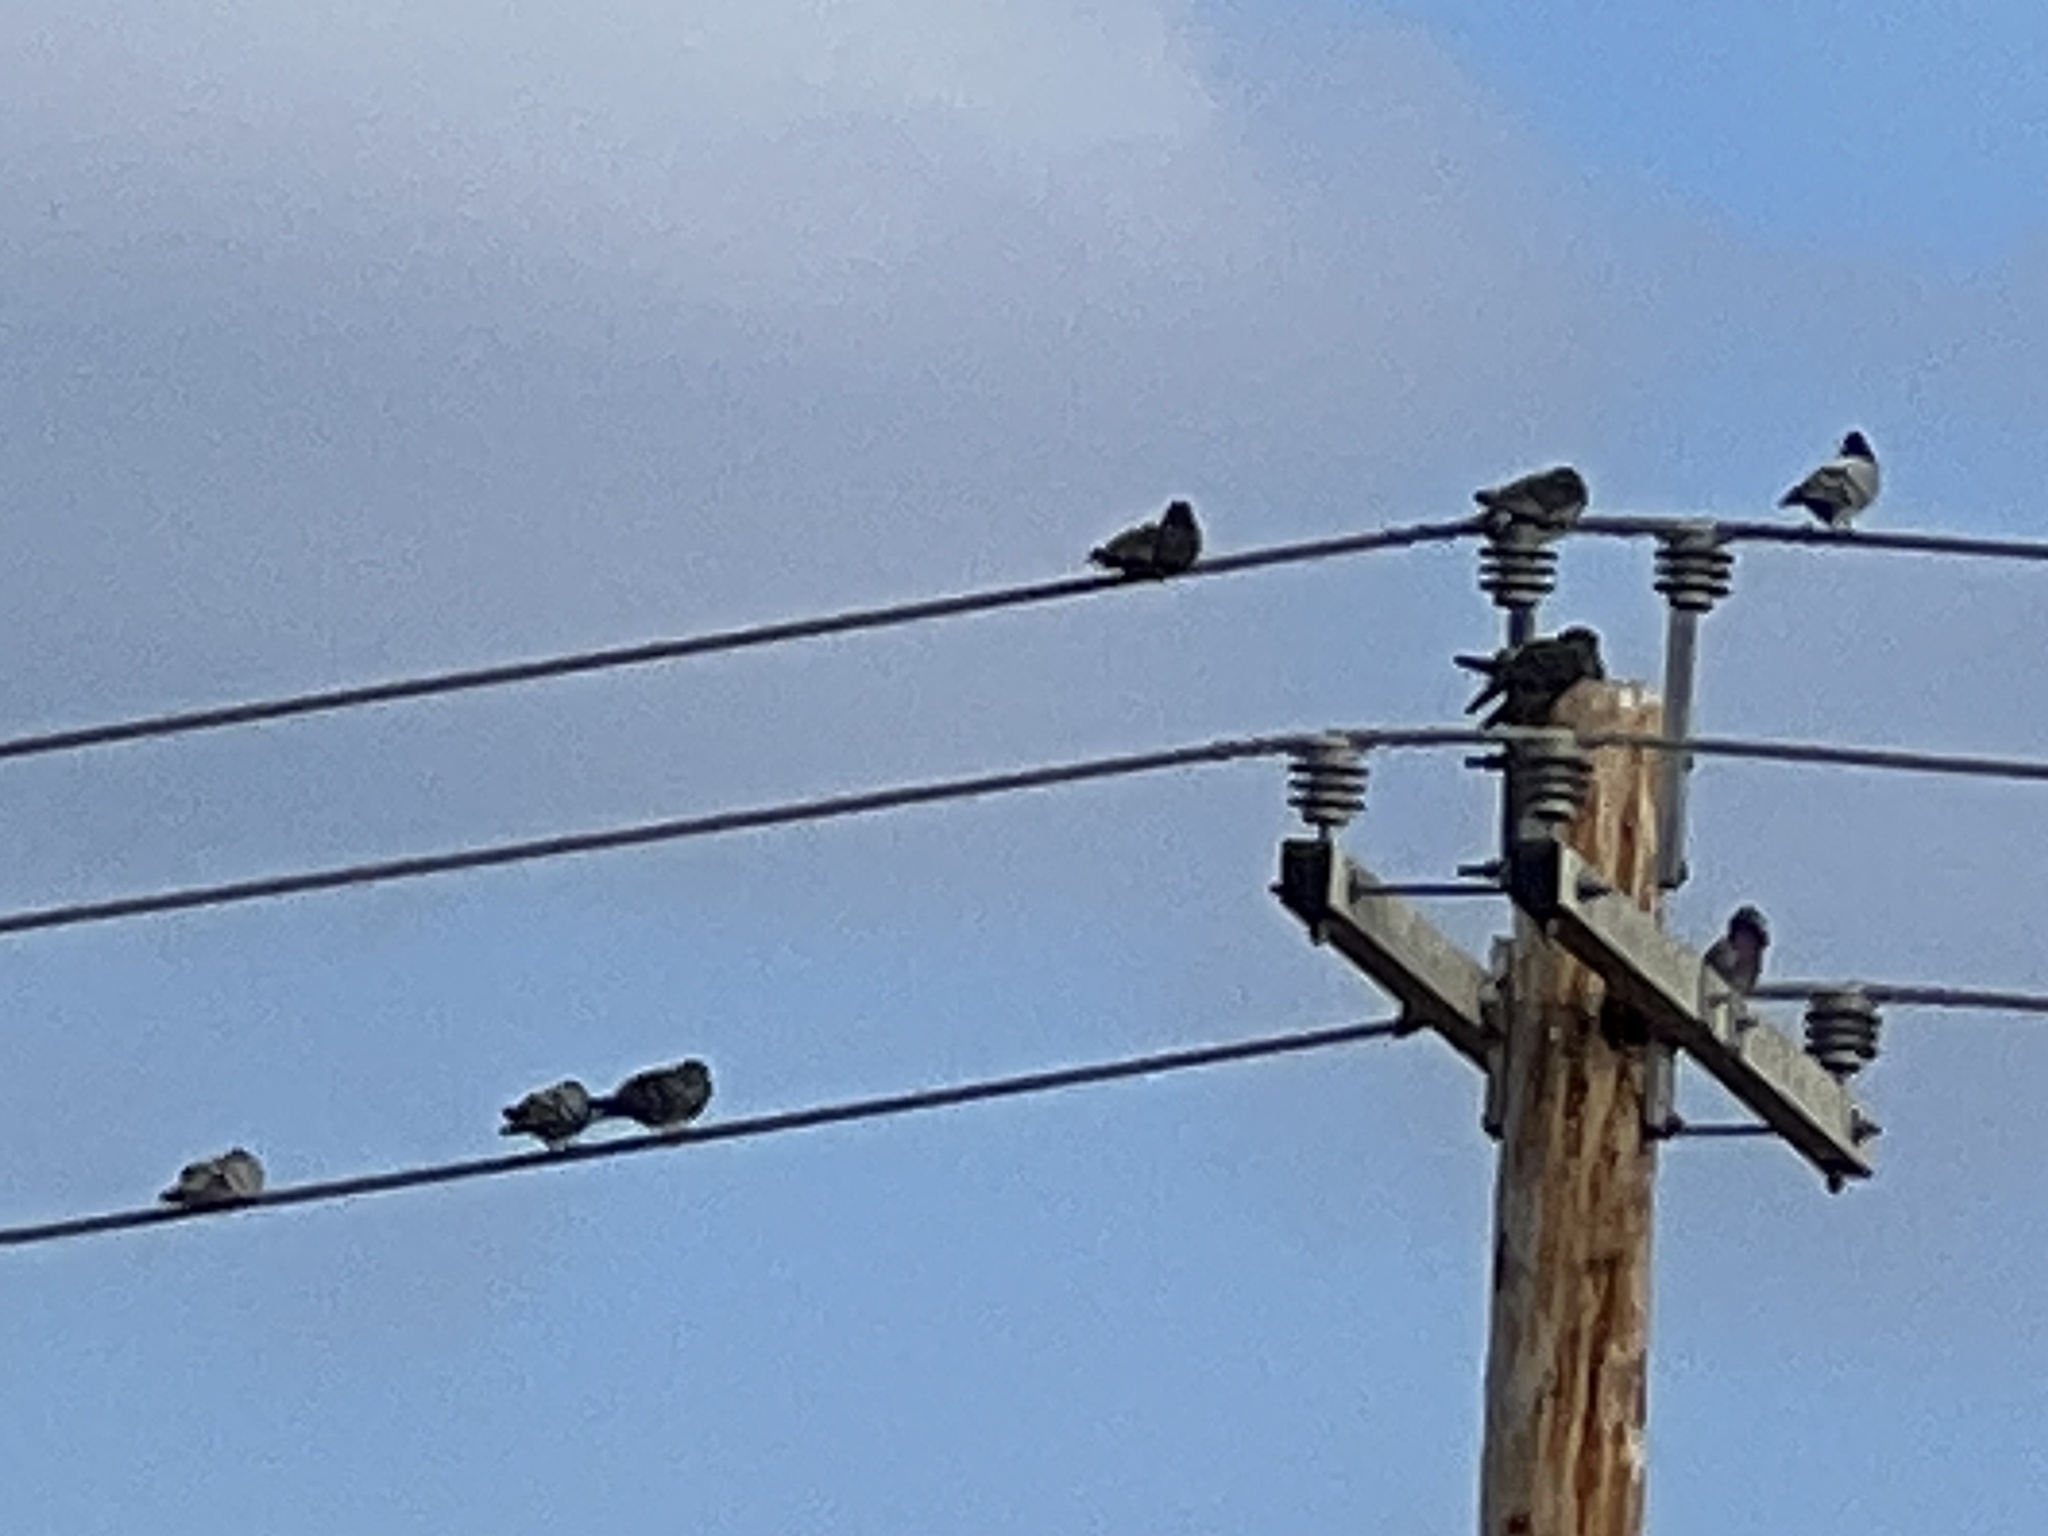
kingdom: Animalia
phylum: Chordata
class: Aves
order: Columbiformes
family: Columbidae
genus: Columba
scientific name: Columba livia
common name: Rock pigeon
